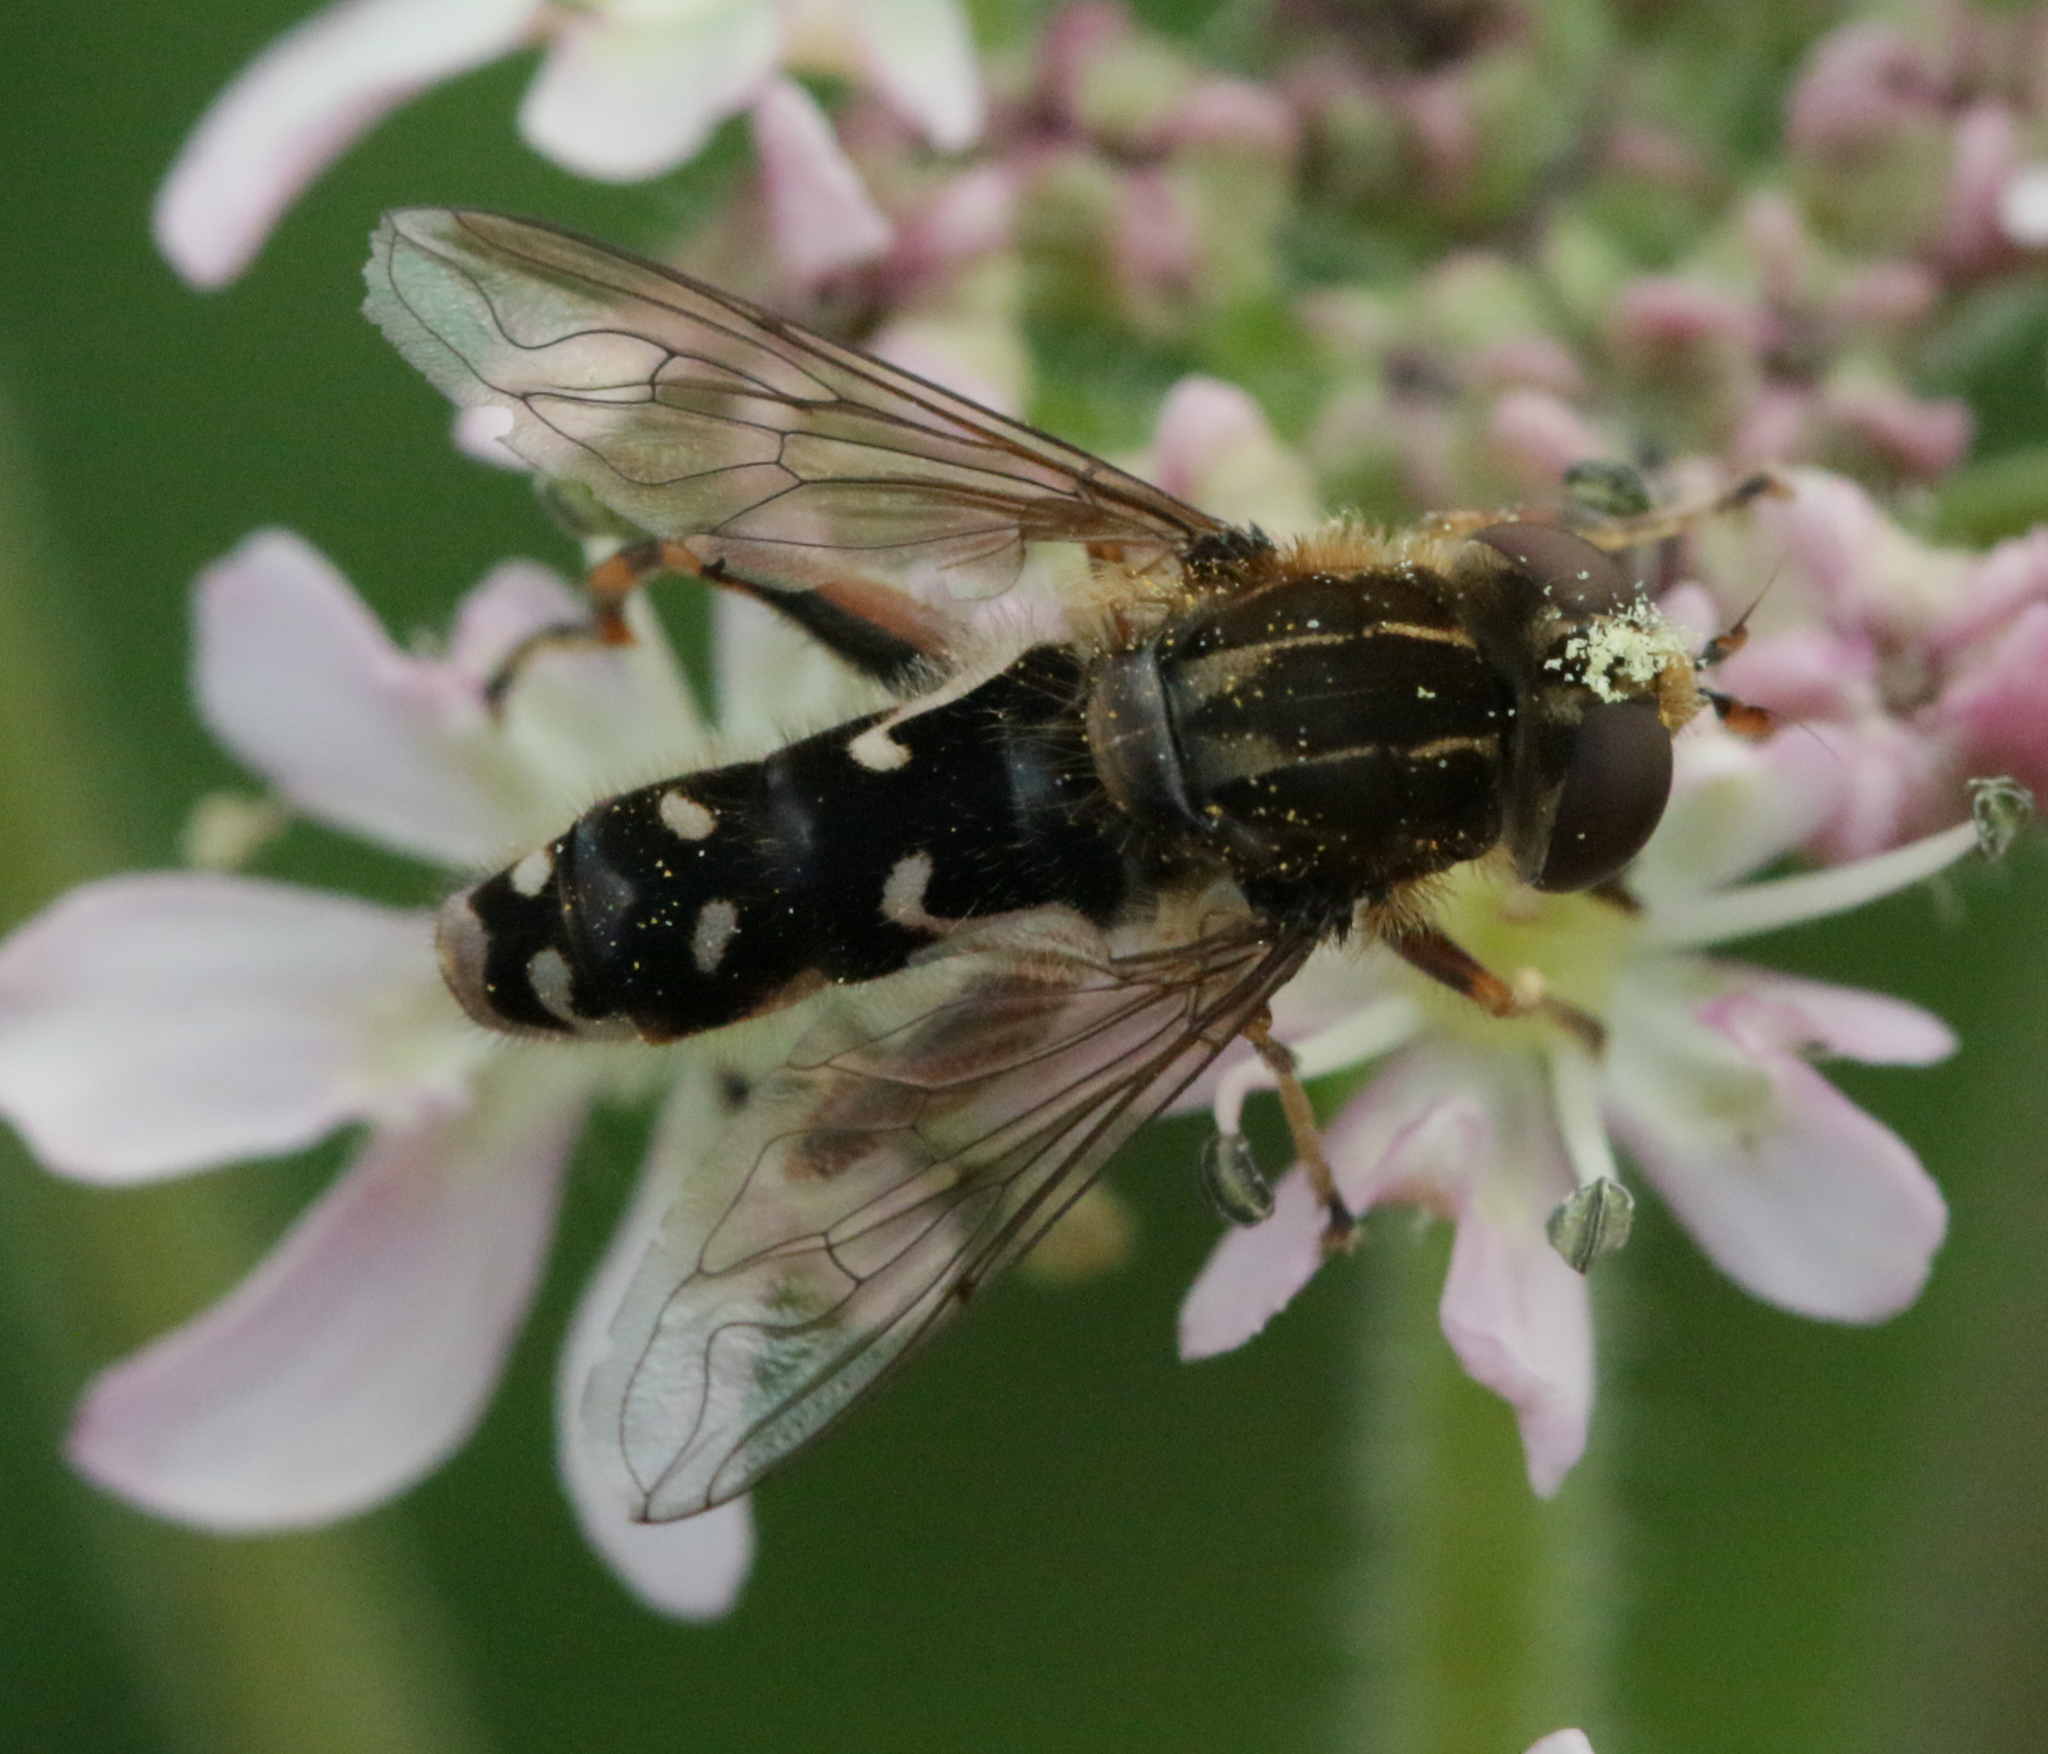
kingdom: Animalia
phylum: Arthropoda
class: Insecta
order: Diptera
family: Syrphidae
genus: Anasimyia
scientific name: Anasimyia contracta
